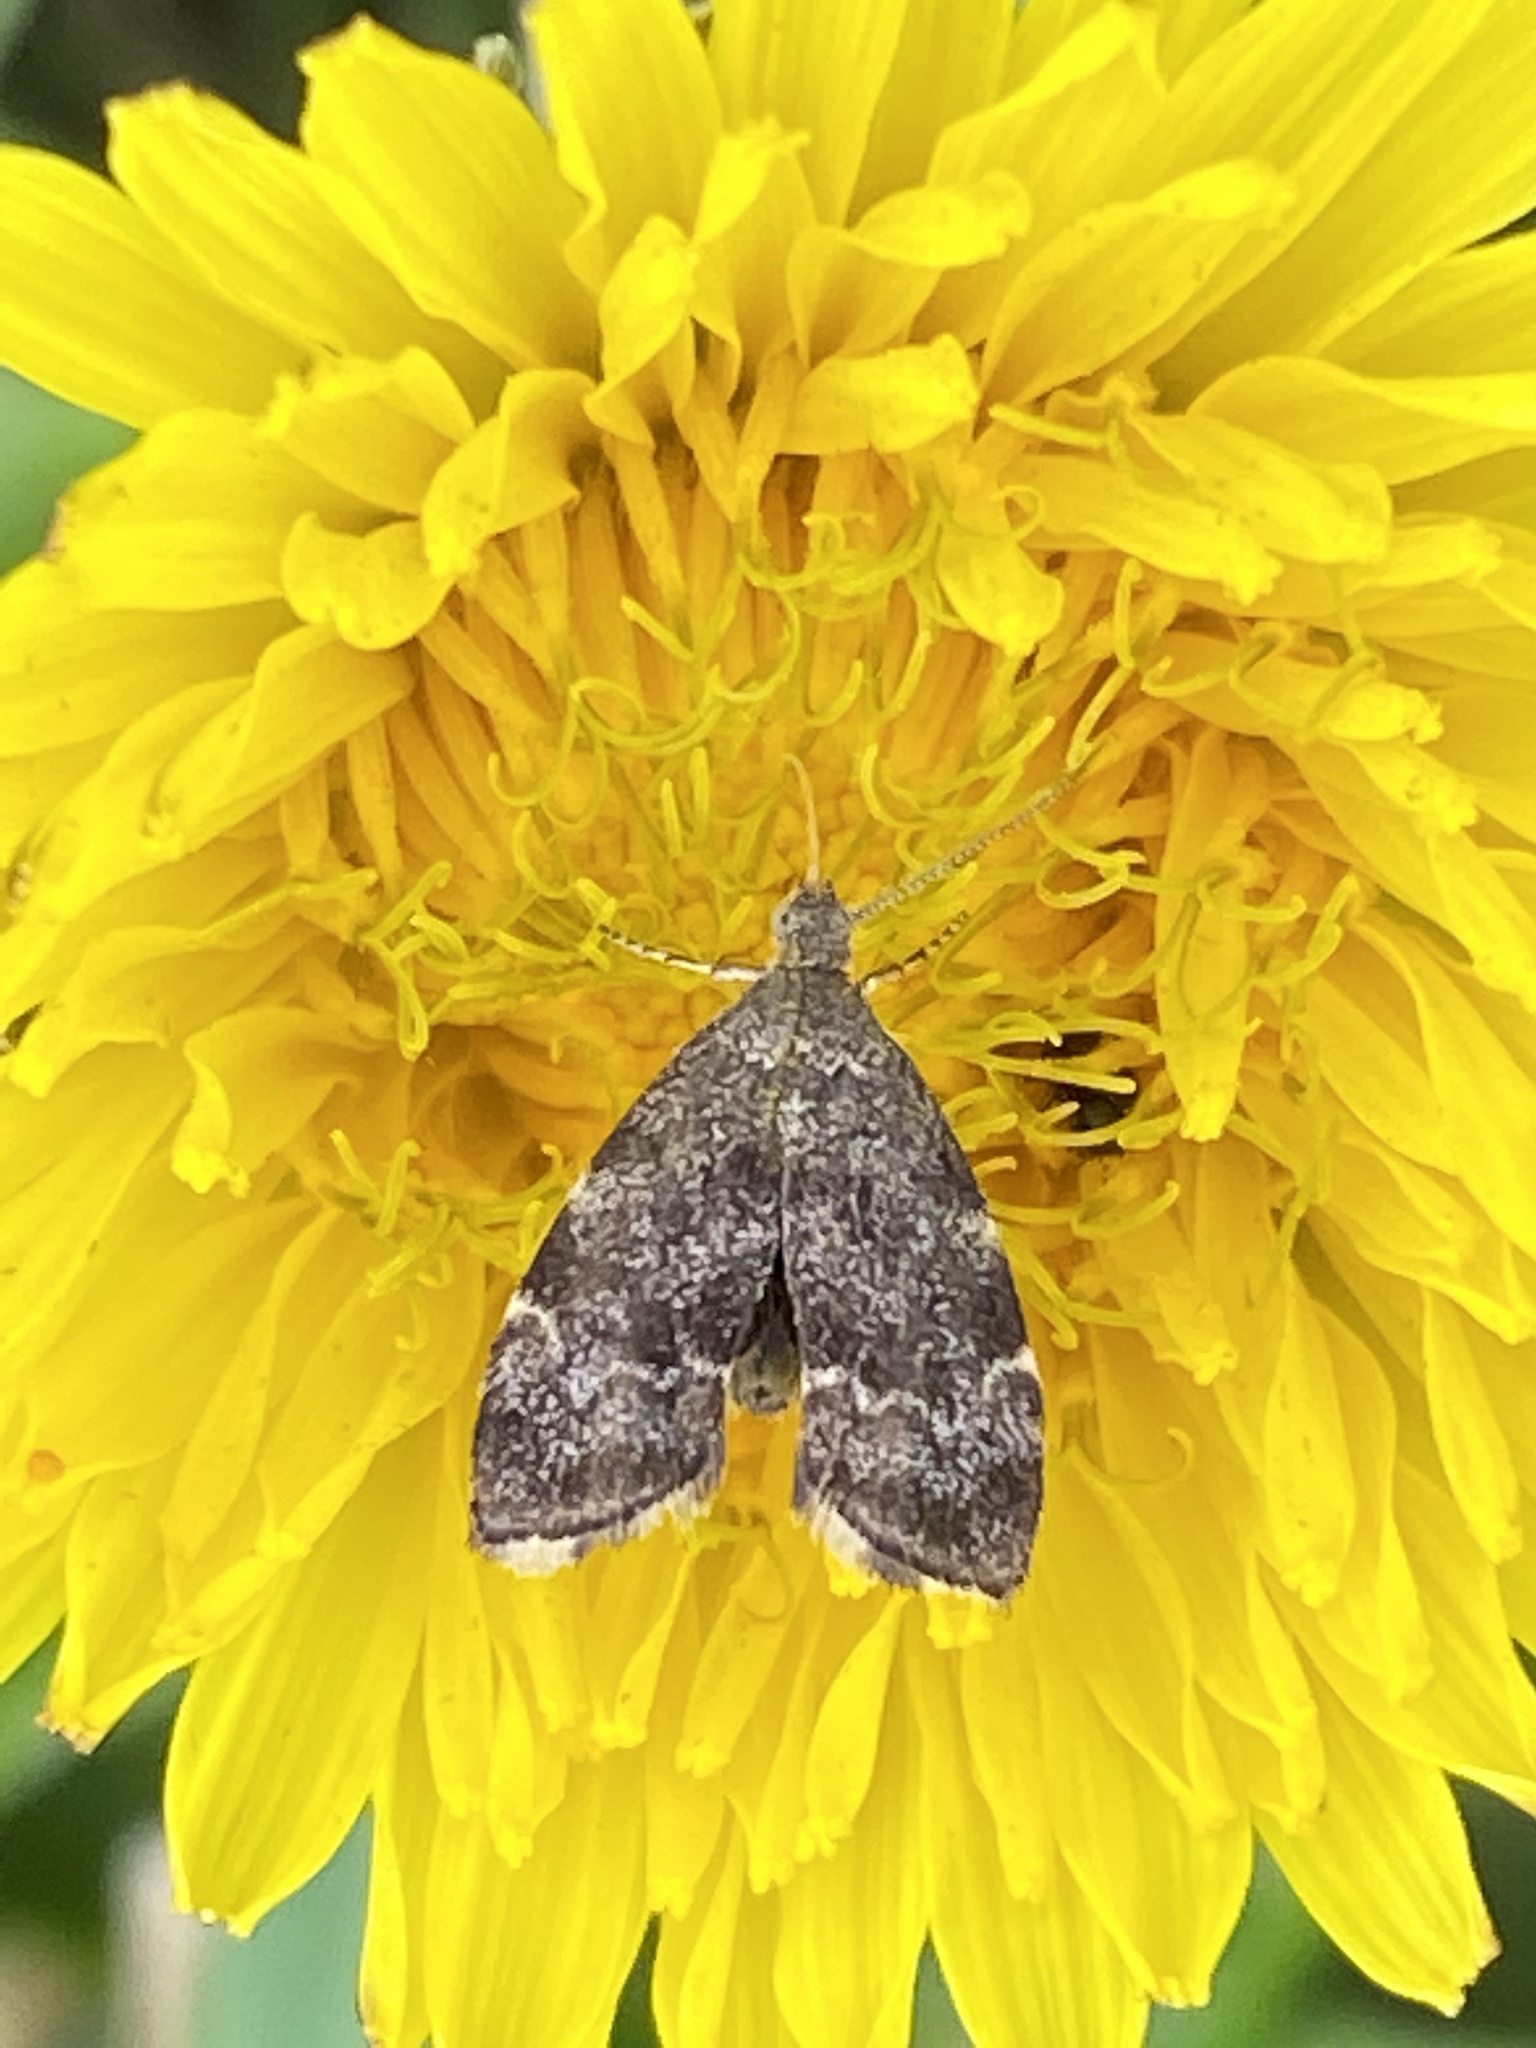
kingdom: Animalia
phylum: Arthropoda
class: Insecta
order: Lepidoptera
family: Choreutidae
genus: Anthophila
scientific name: Anthophila fabriciana
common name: Nettle-tap
